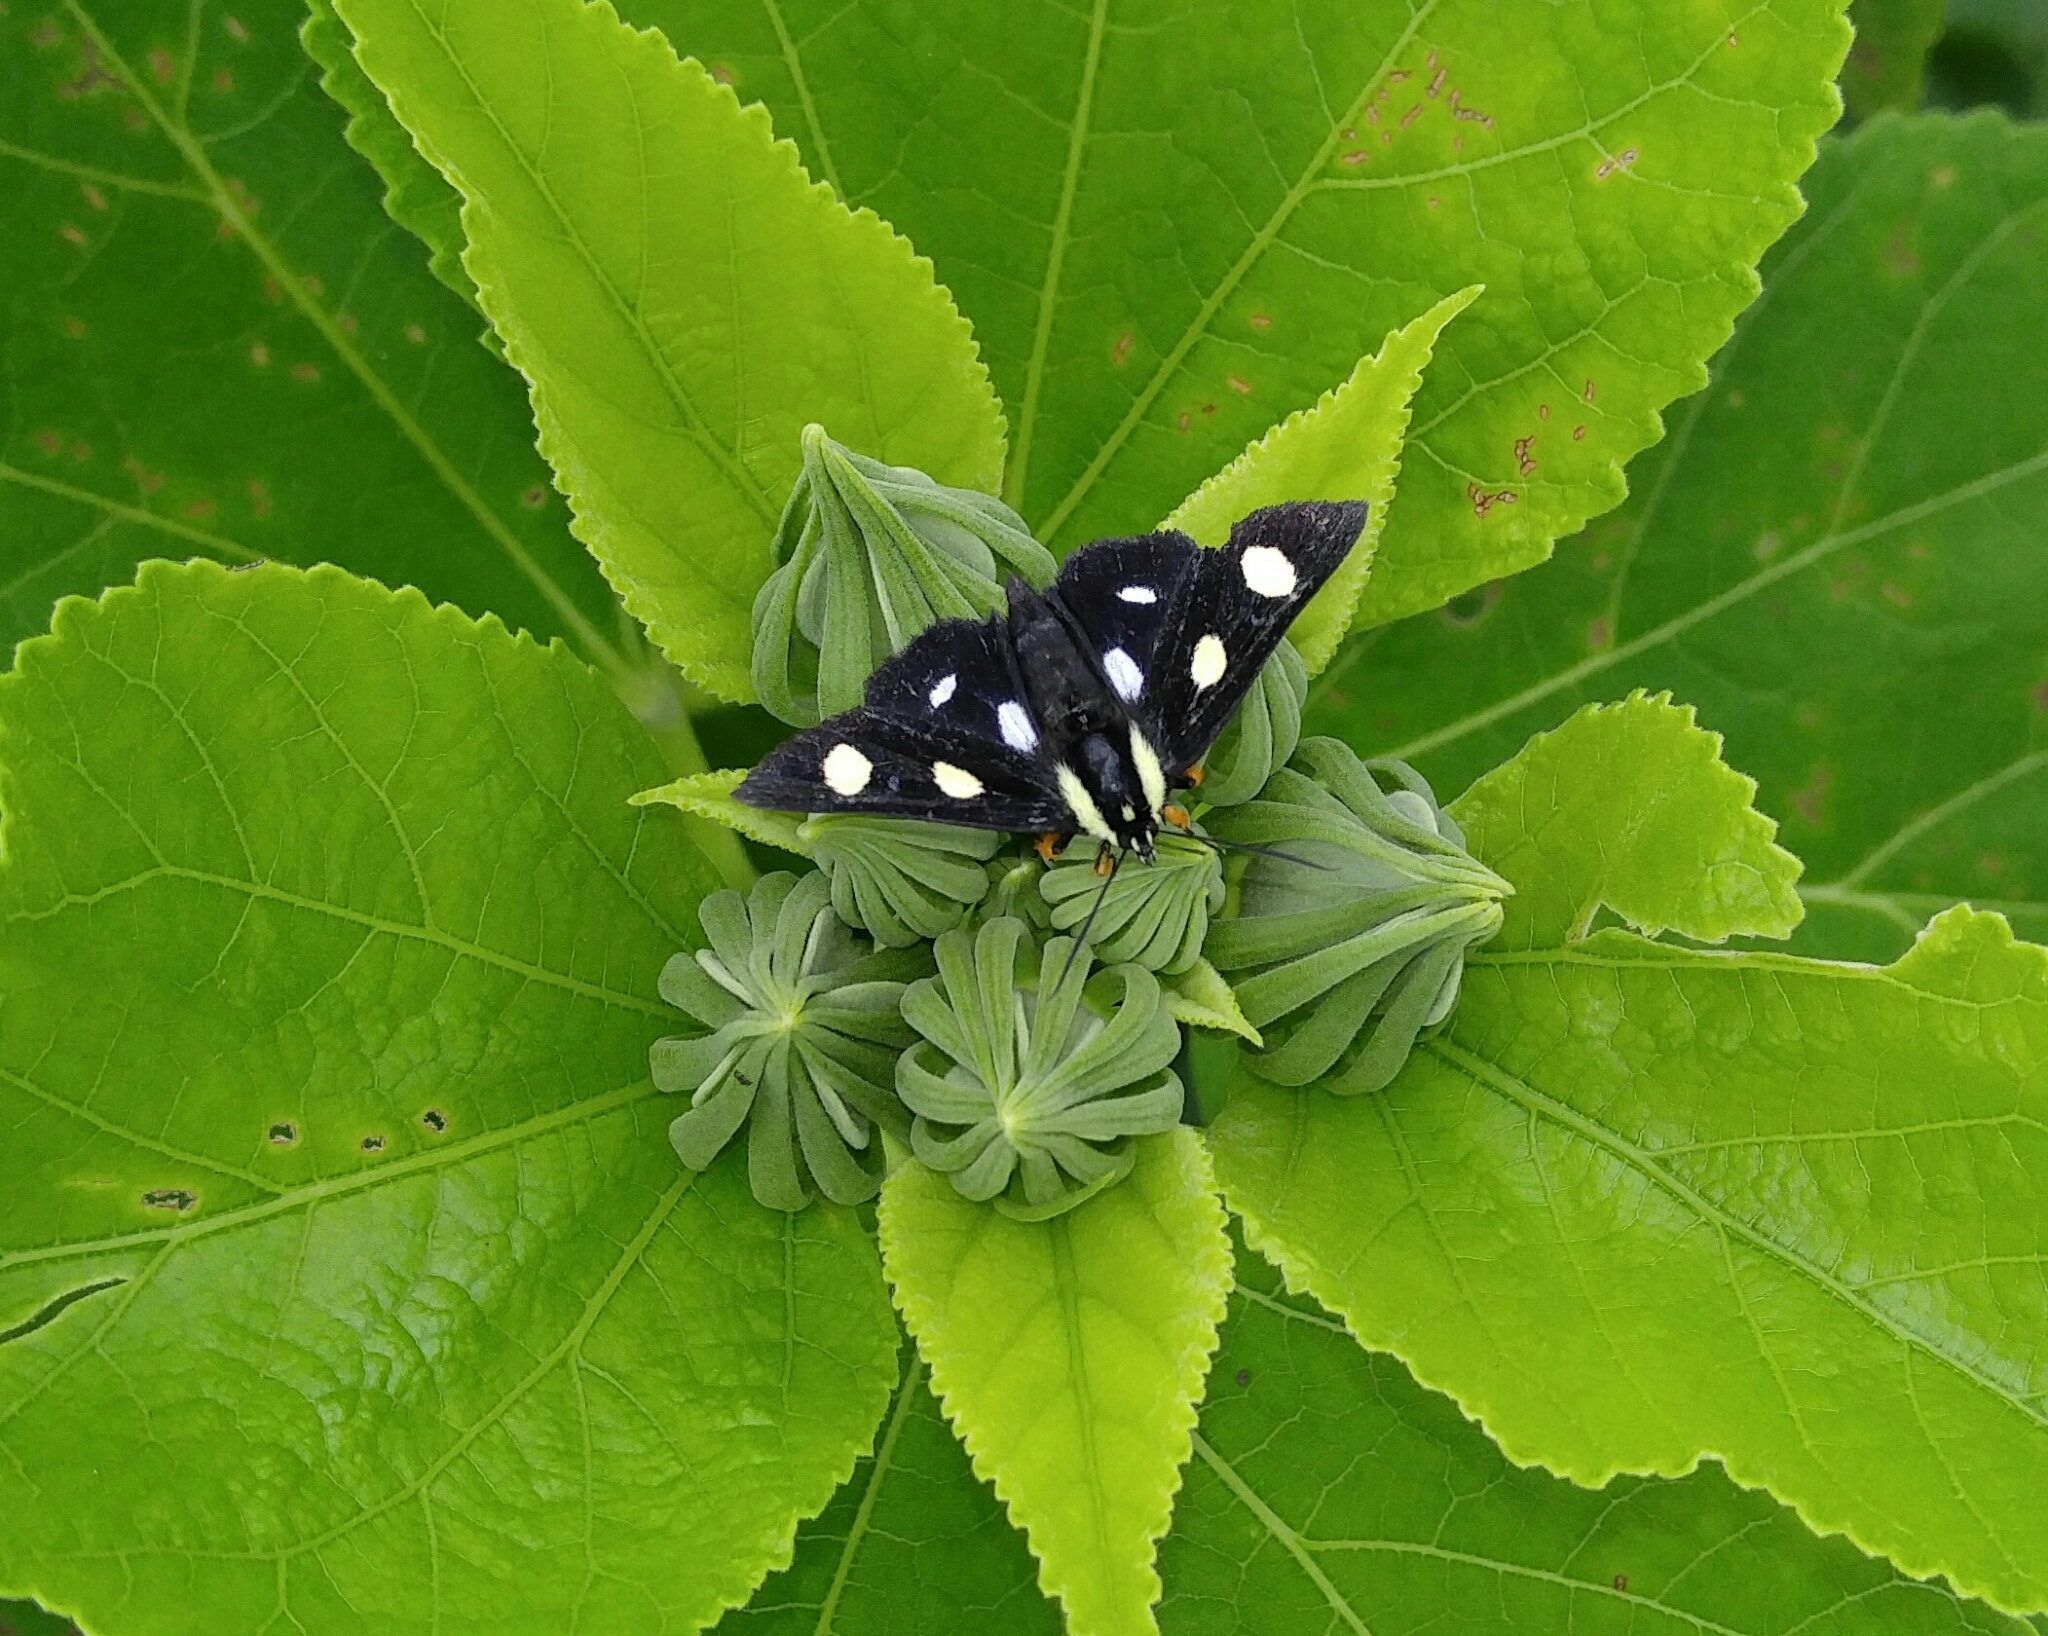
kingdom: Animalia
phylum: Arthropoda
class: Insecta
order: Lepidoptera
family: Noctuidae
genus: Alypia
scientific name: Alypia octomaculata
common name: Eight-spotted forester
